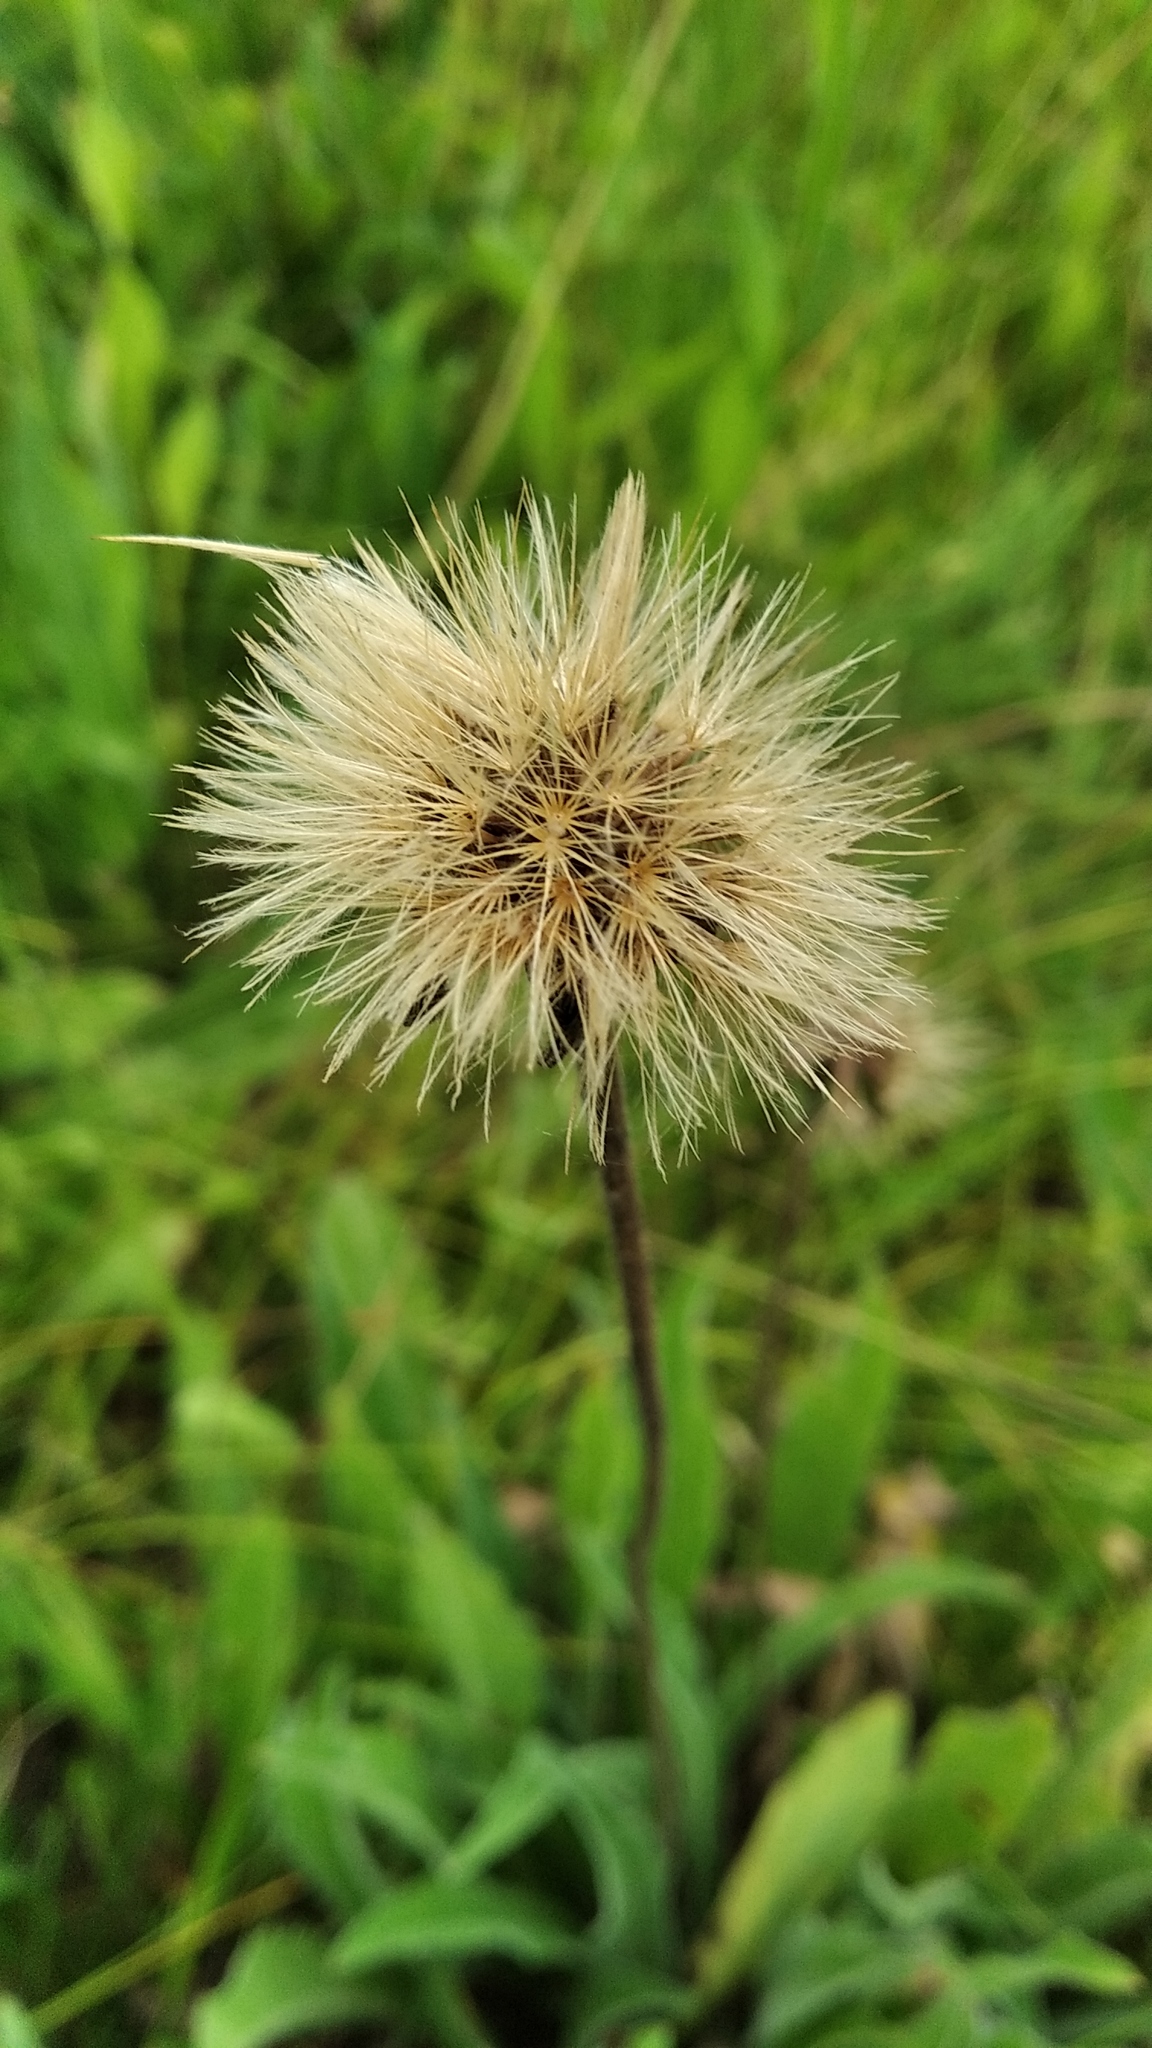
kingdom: Plantae
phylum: Tracheophyta
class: Magnoliopsida
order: Asterales
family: Asteraceae
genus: Leontodon
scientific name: Leontodon hispidus
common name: Rough hawkbit
